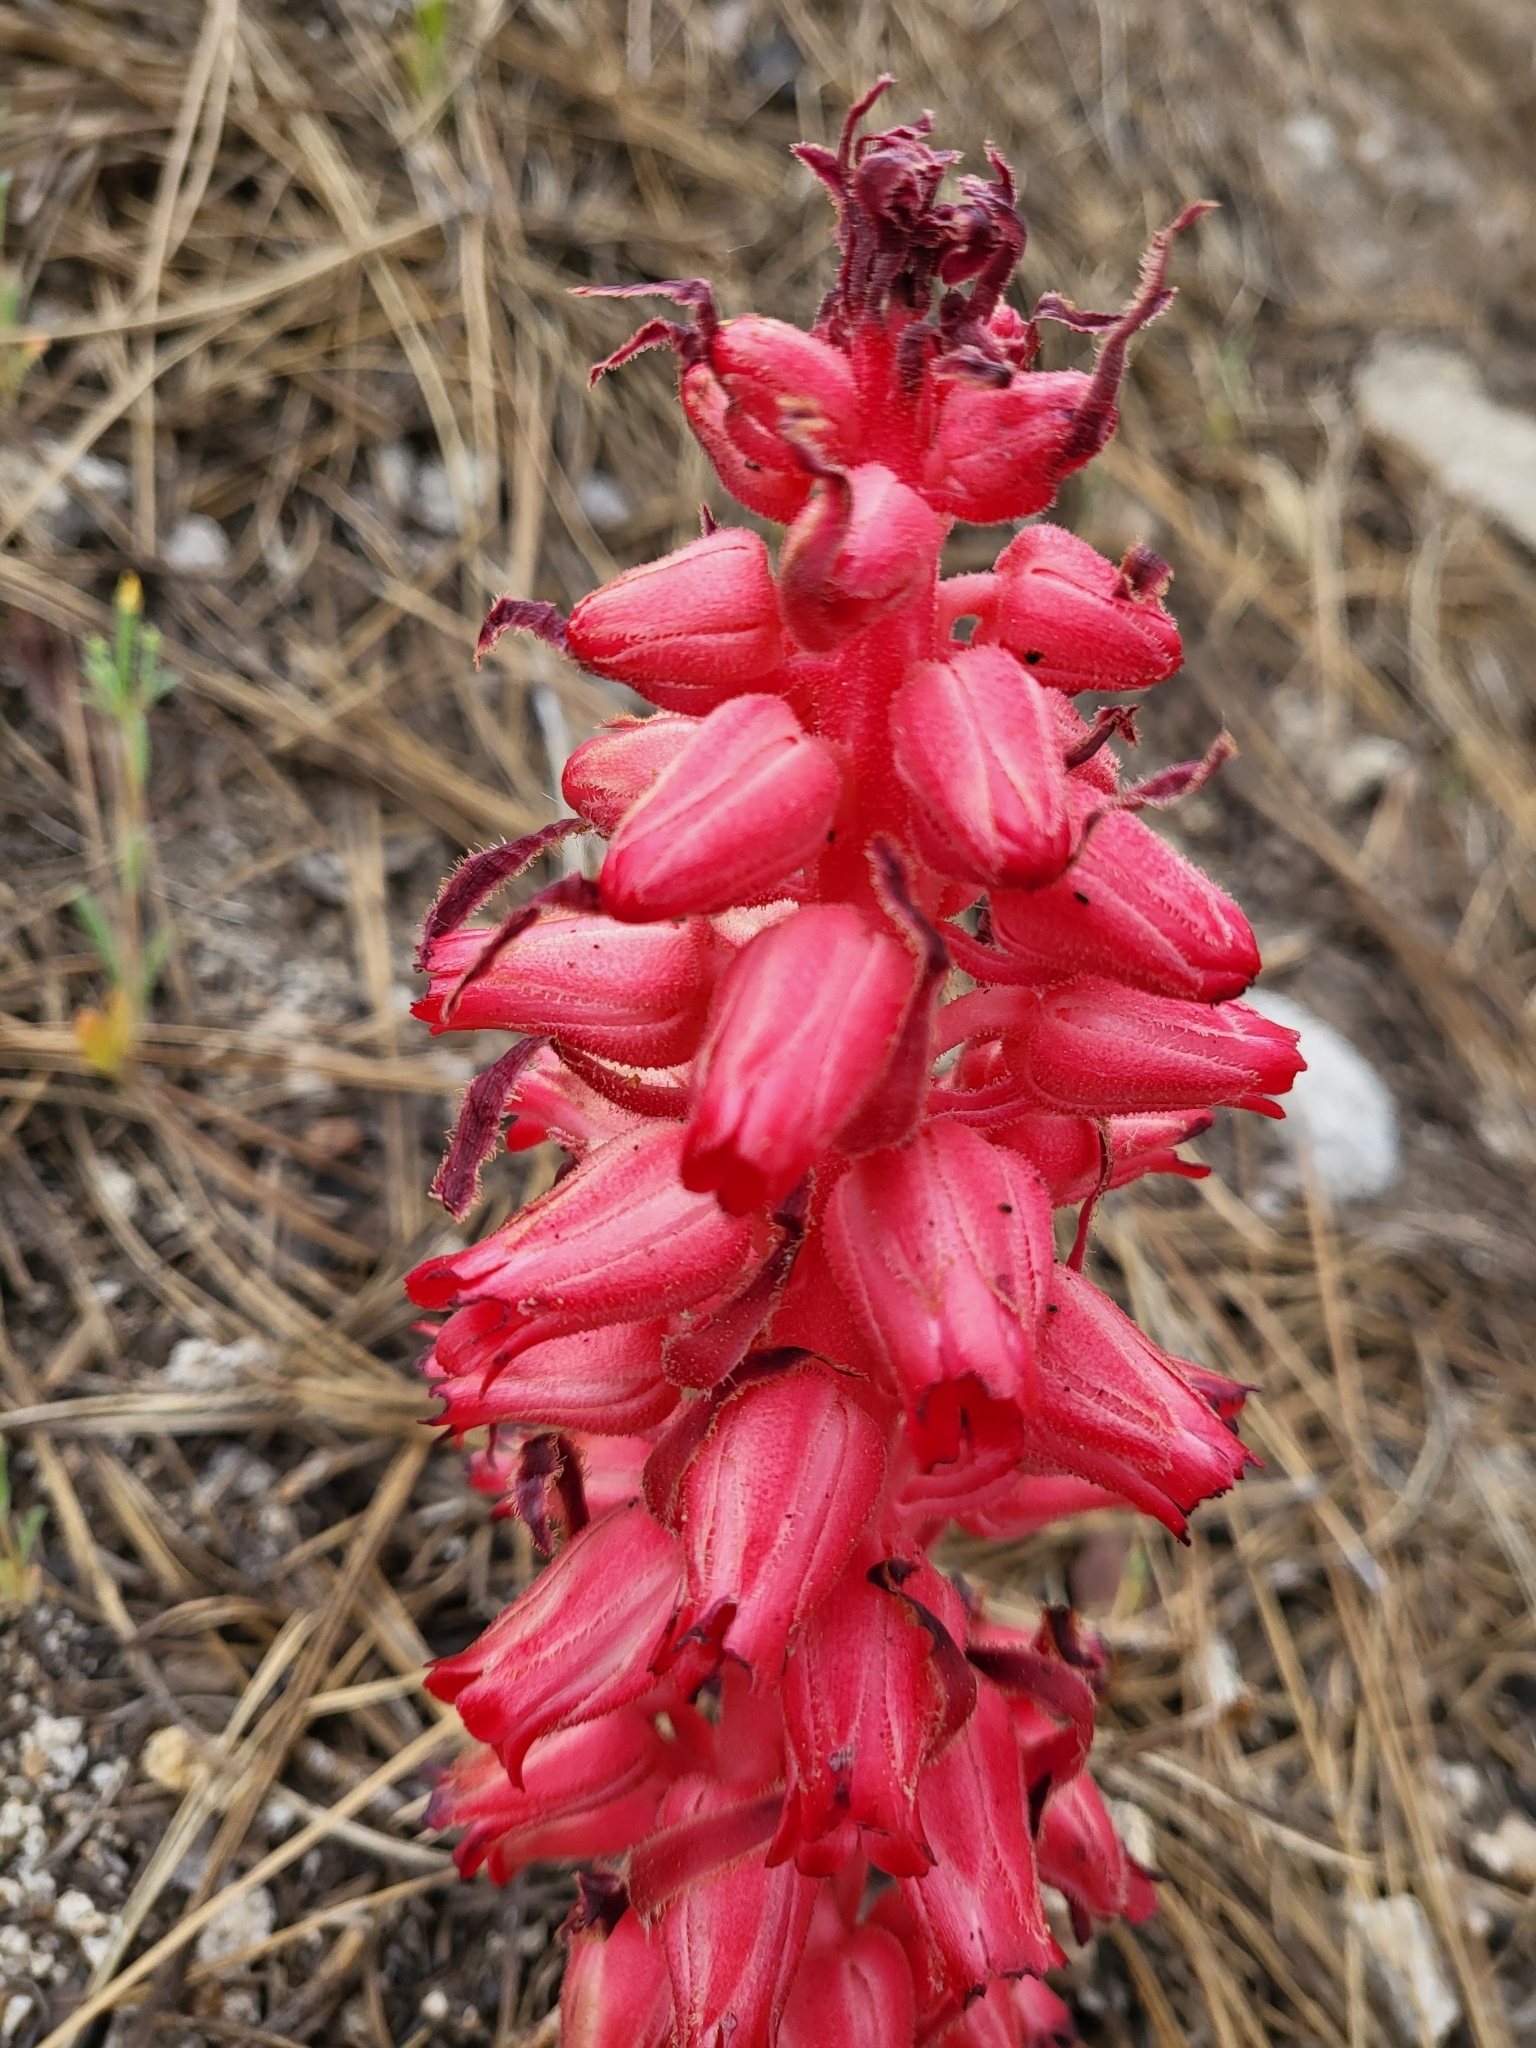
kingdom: Plantae
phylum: Tracheophyta
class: Magnoliopsida
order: Ericales
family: Ericaceae
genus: Sarcodes
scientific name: Sarcodes sanguinea
